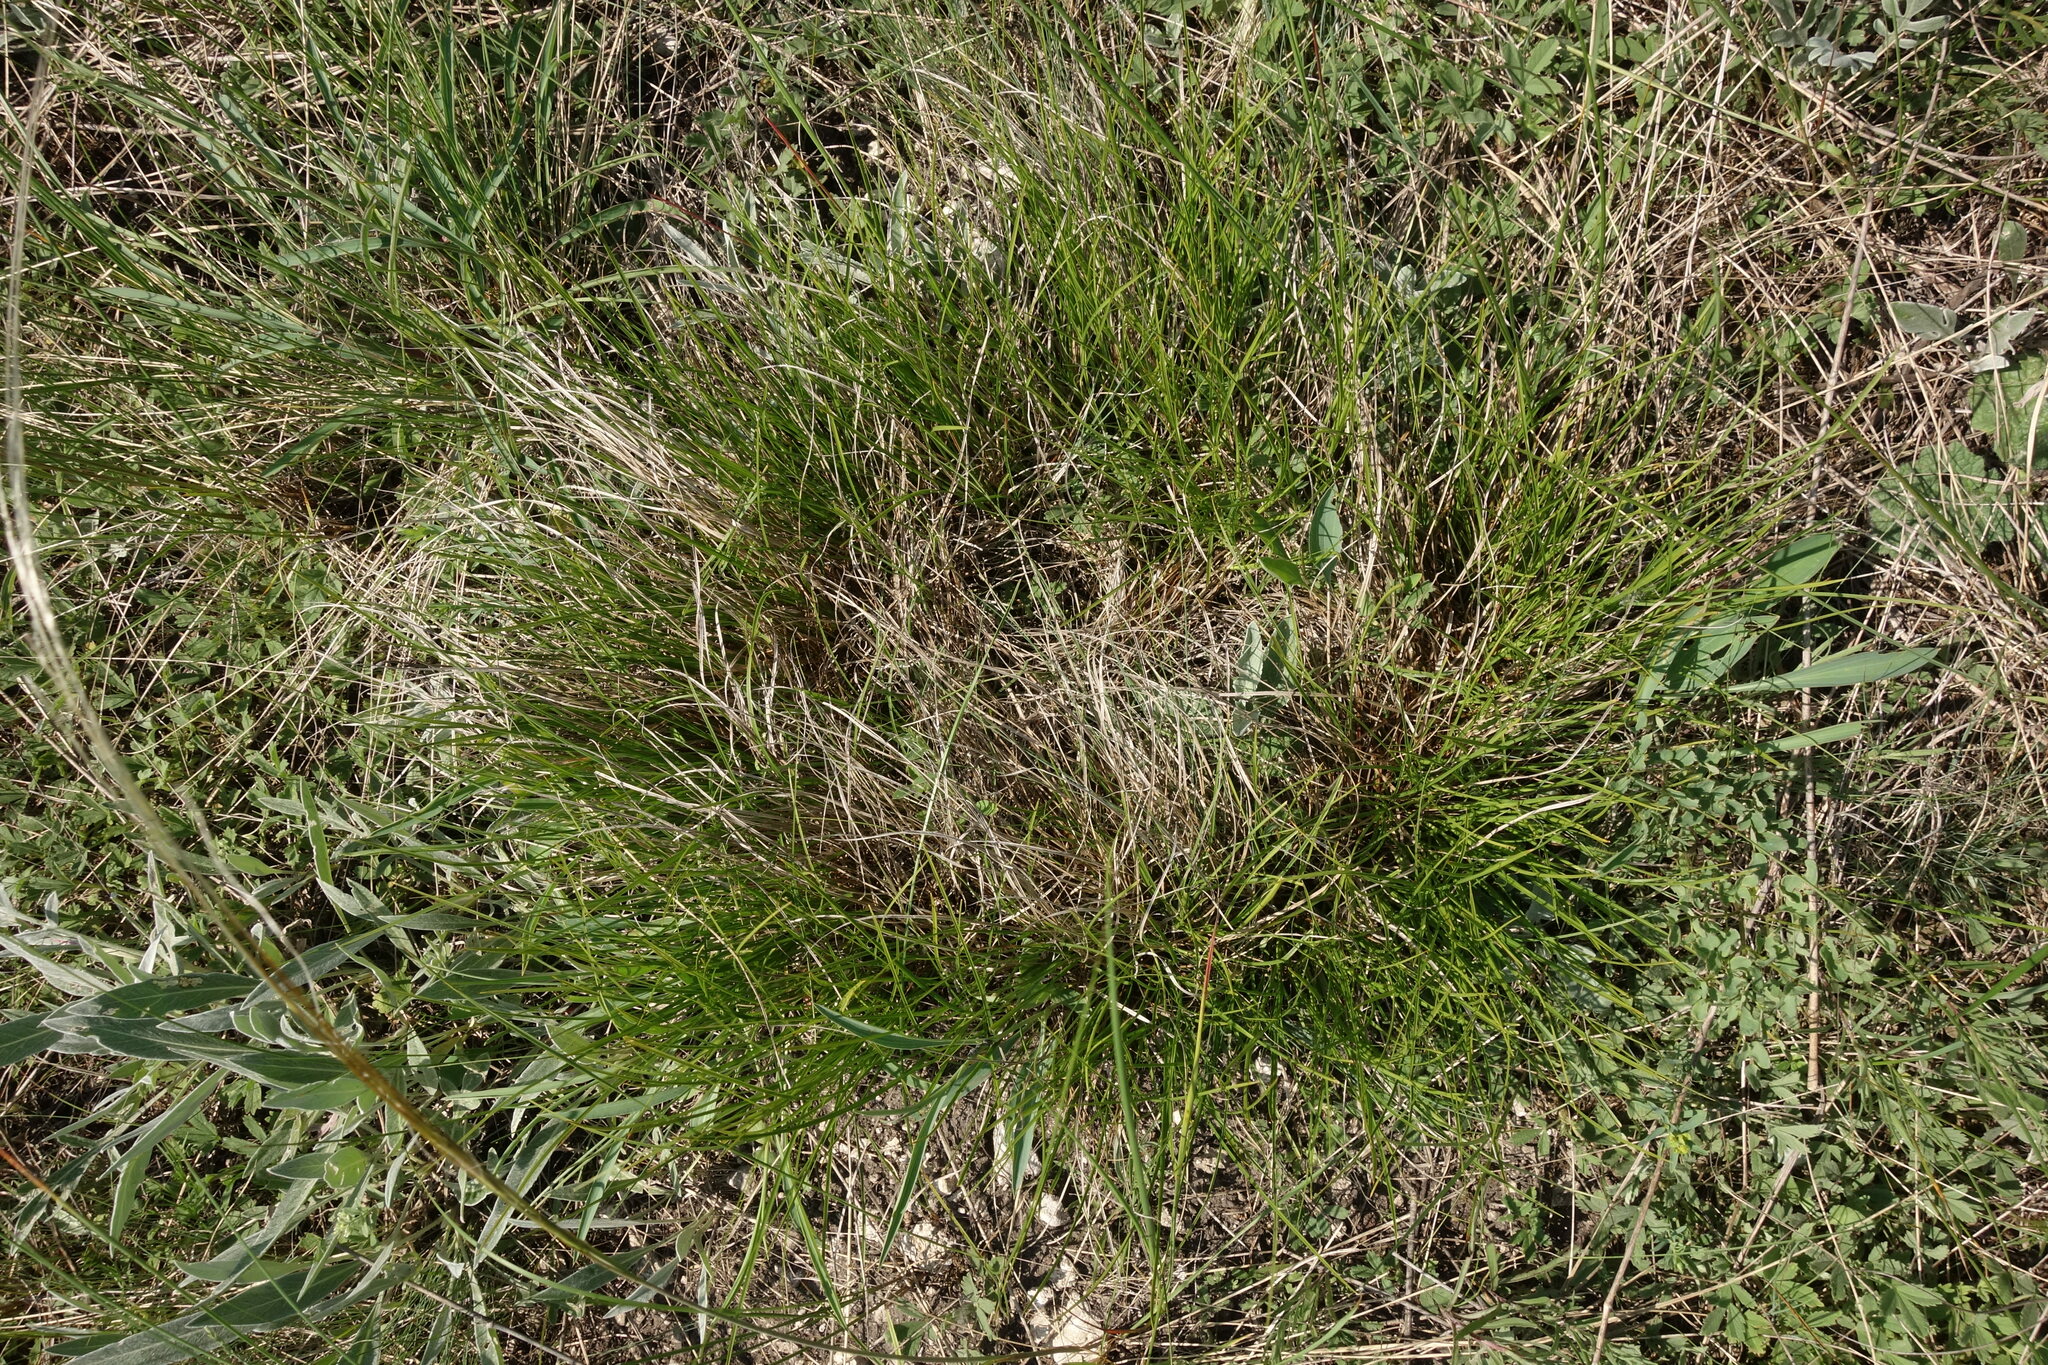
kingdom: Plantae
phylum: Tracheophyta
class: Liliopsida
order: Poales
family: Cyperaceae
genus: Carex
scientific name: Carex humilis
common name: Dwarf sedge
